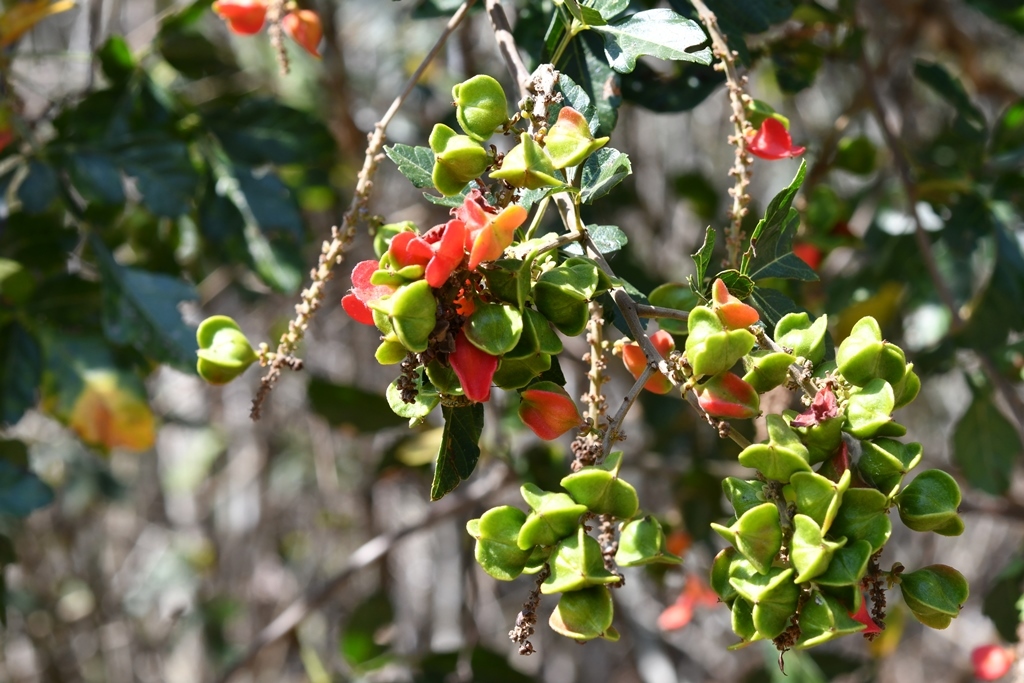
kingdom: Plantae
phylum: Tracheophyta
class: Magnoliopsida
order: Sapindales
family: Sapindaceae
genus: Paullinia
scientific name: Paullinia fuscescens
